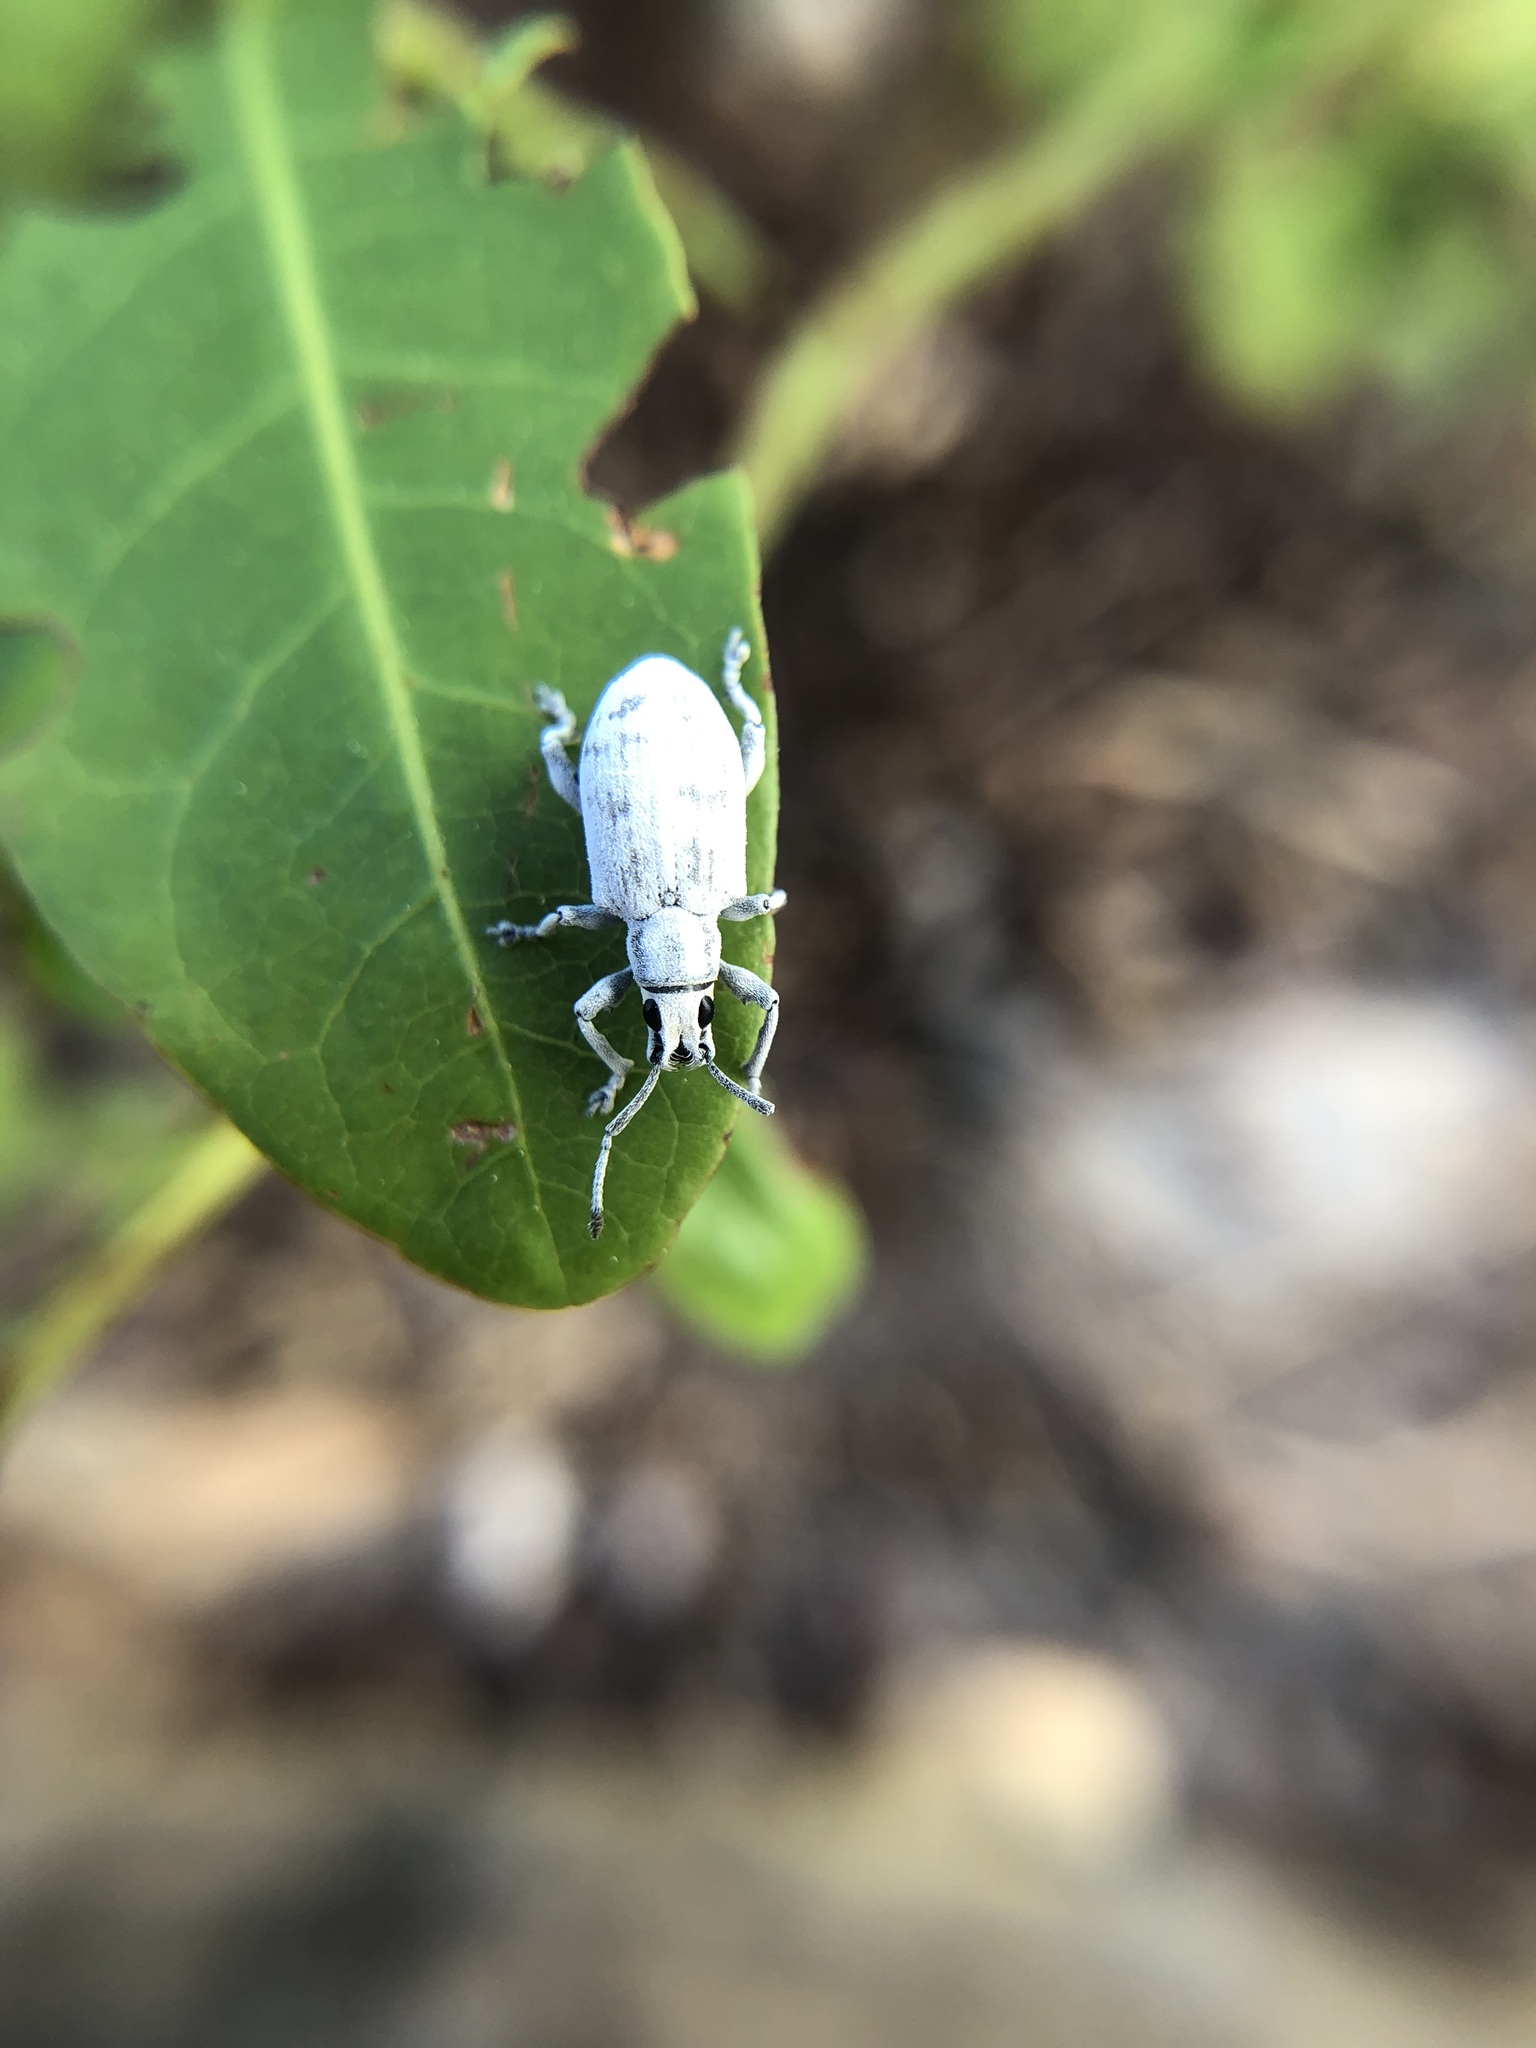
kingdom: Animalia
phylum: Arthropoda
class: Insecta
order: Coleoptera
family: Curculionidae
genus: Myllocerus
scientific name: Myllocerus undecimpustulatus
